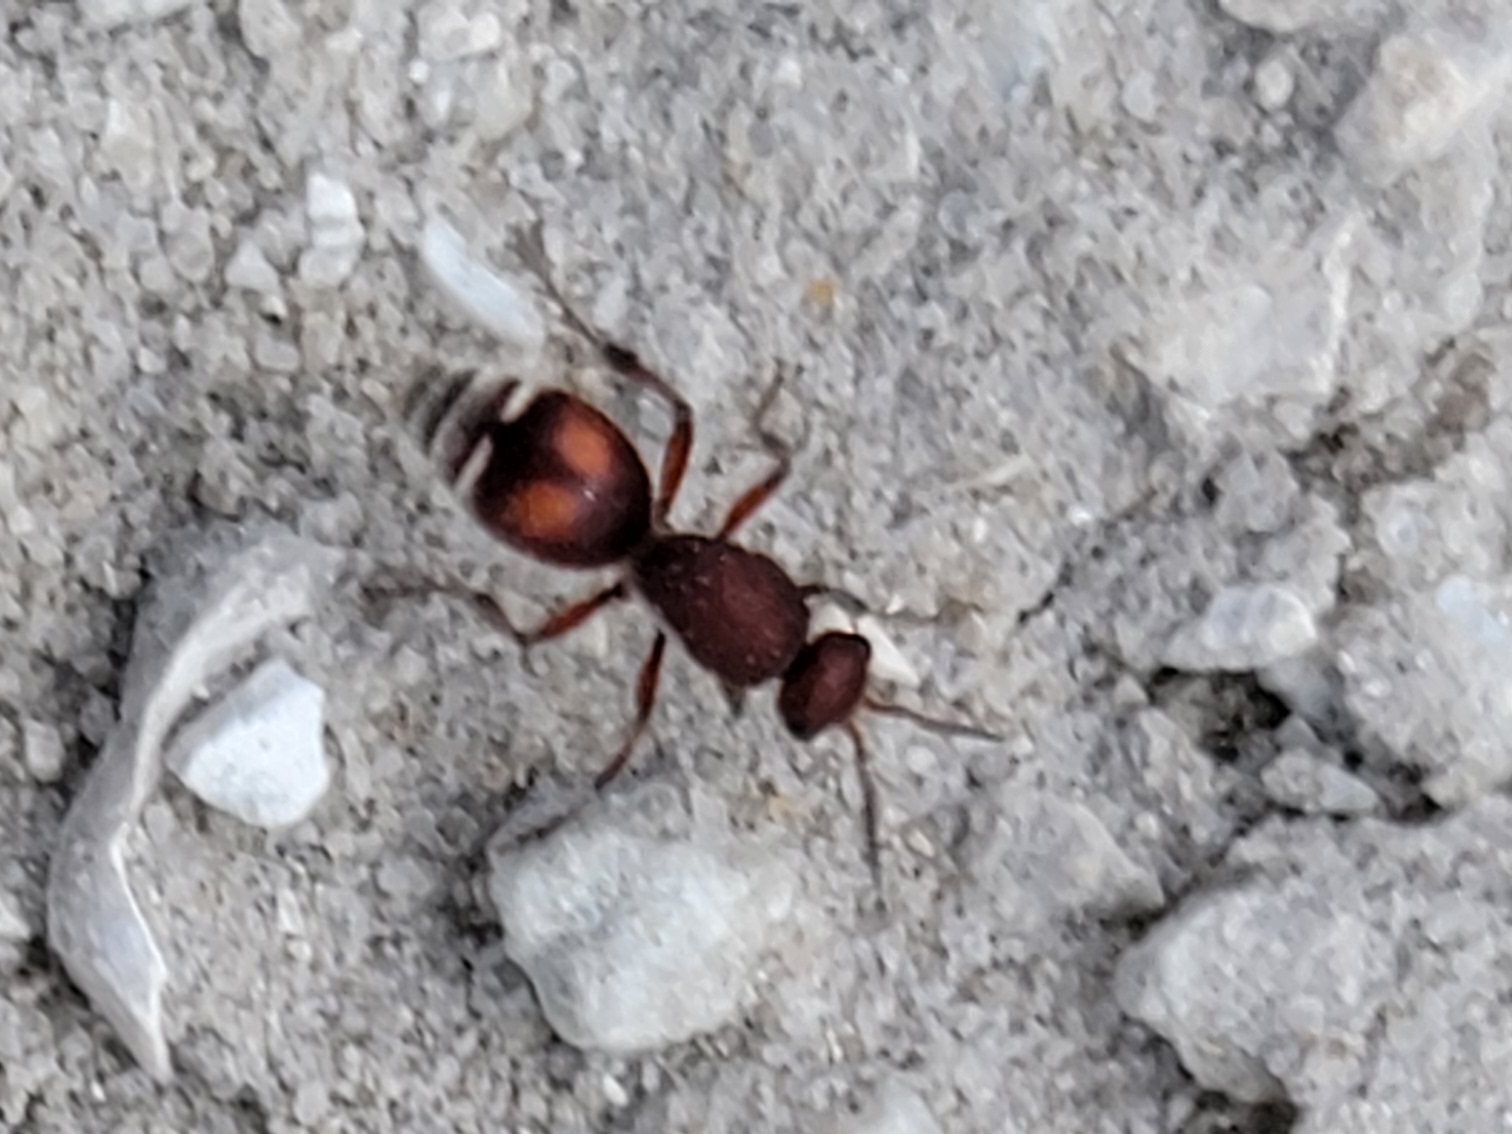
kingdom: Animalia
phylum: Arthropoda
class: Insecta
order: Hymenoptera
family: Mutillidae
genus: Dasymutilla
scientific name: Dasymutilla
